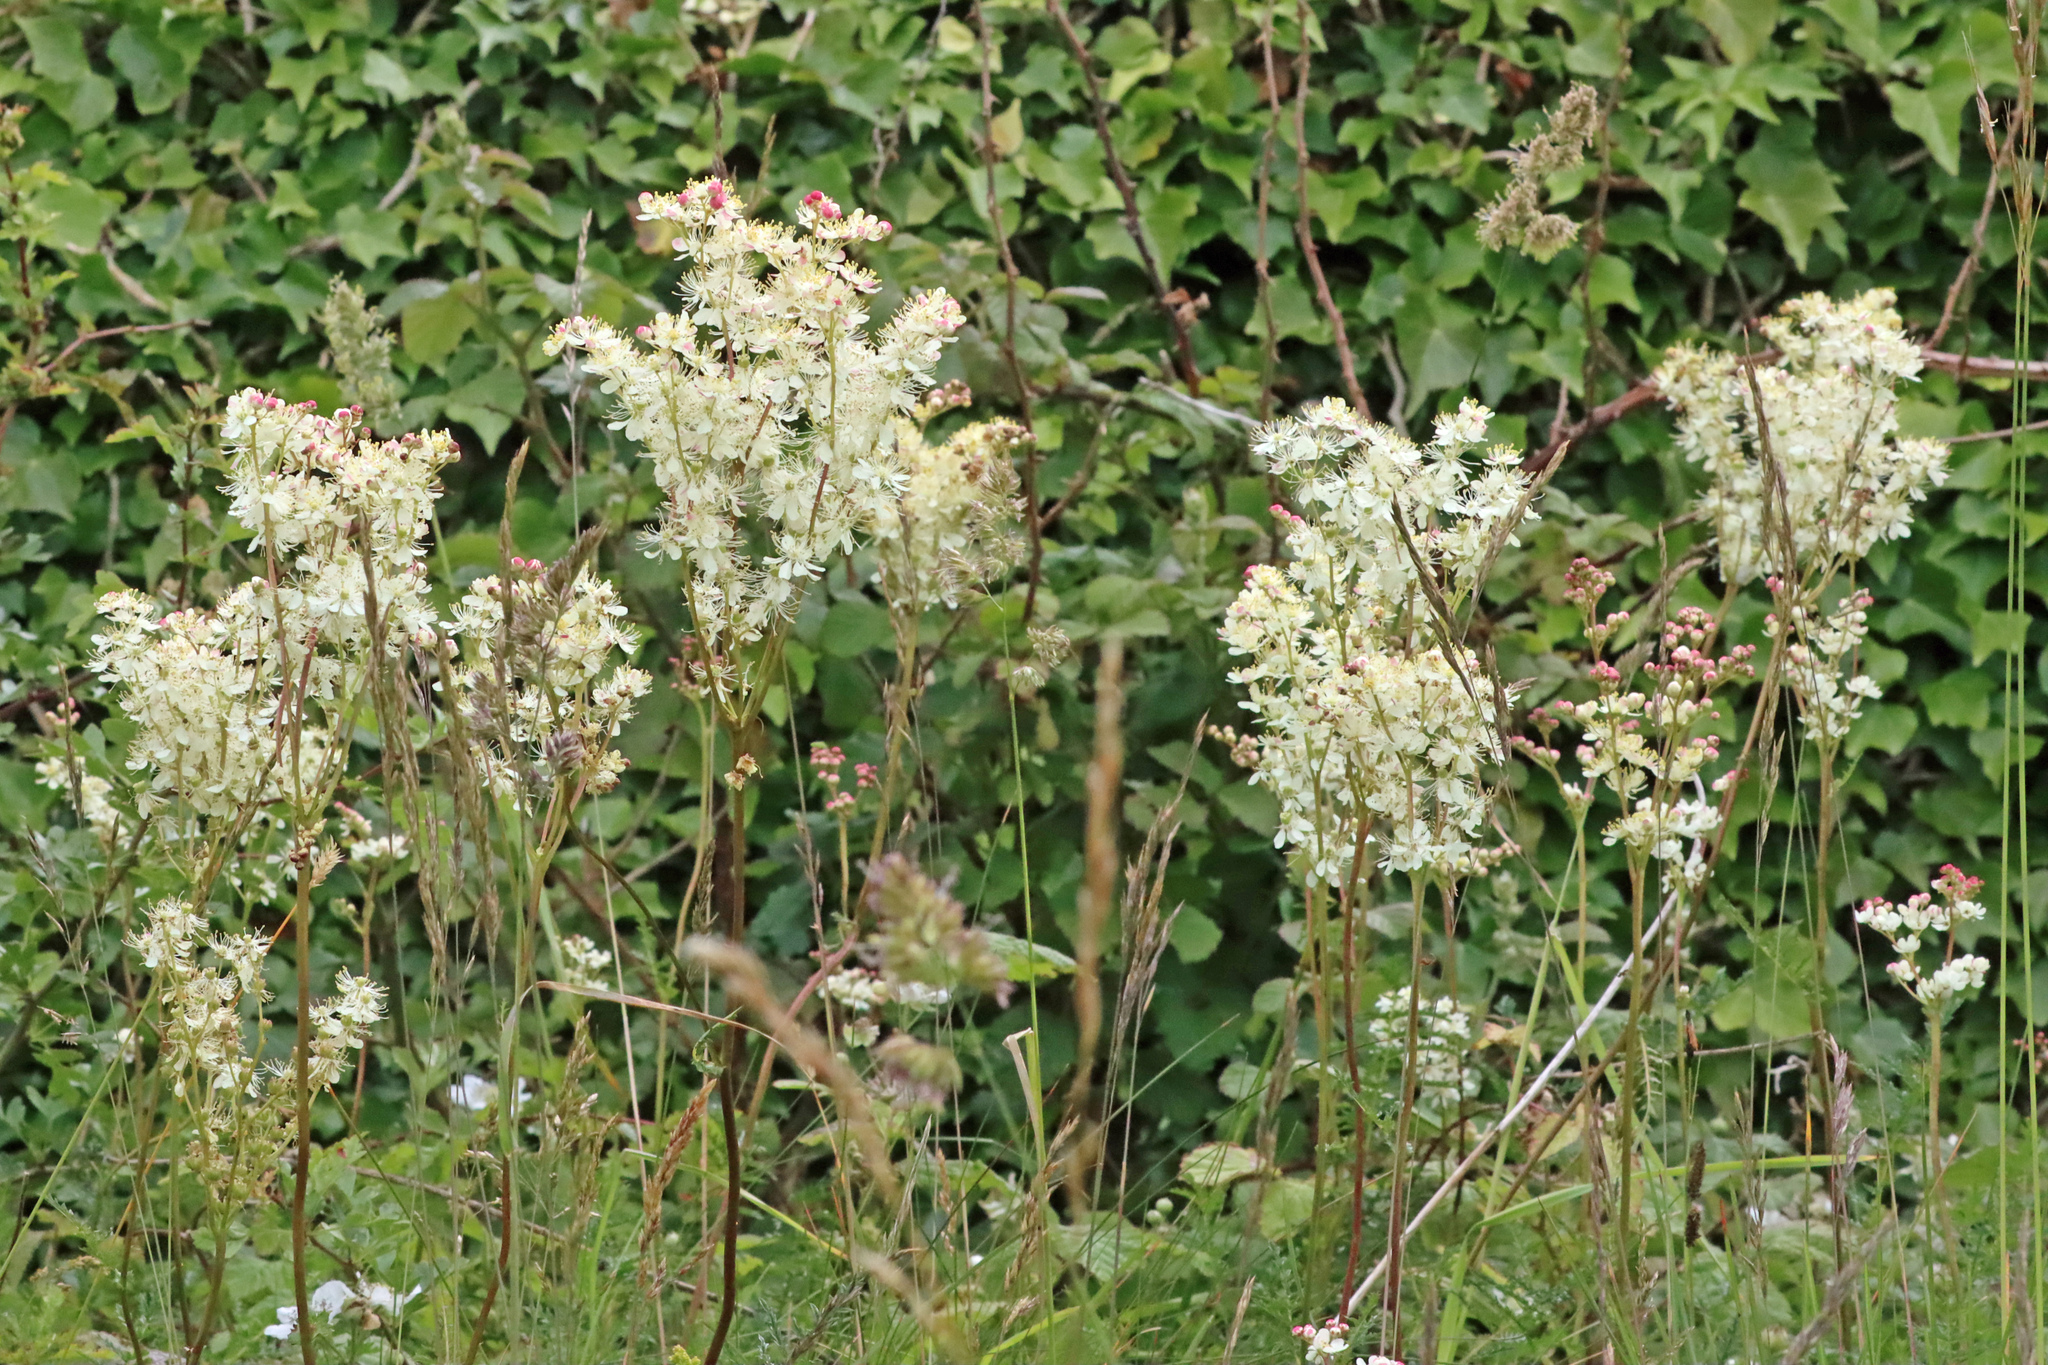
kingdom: Plantae
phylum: Tracheophyta
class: Magnoliopsida
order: Rosales
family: Rosaceae
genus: Filipendula
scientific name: Filipendula vulgaris
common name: Dropwort
